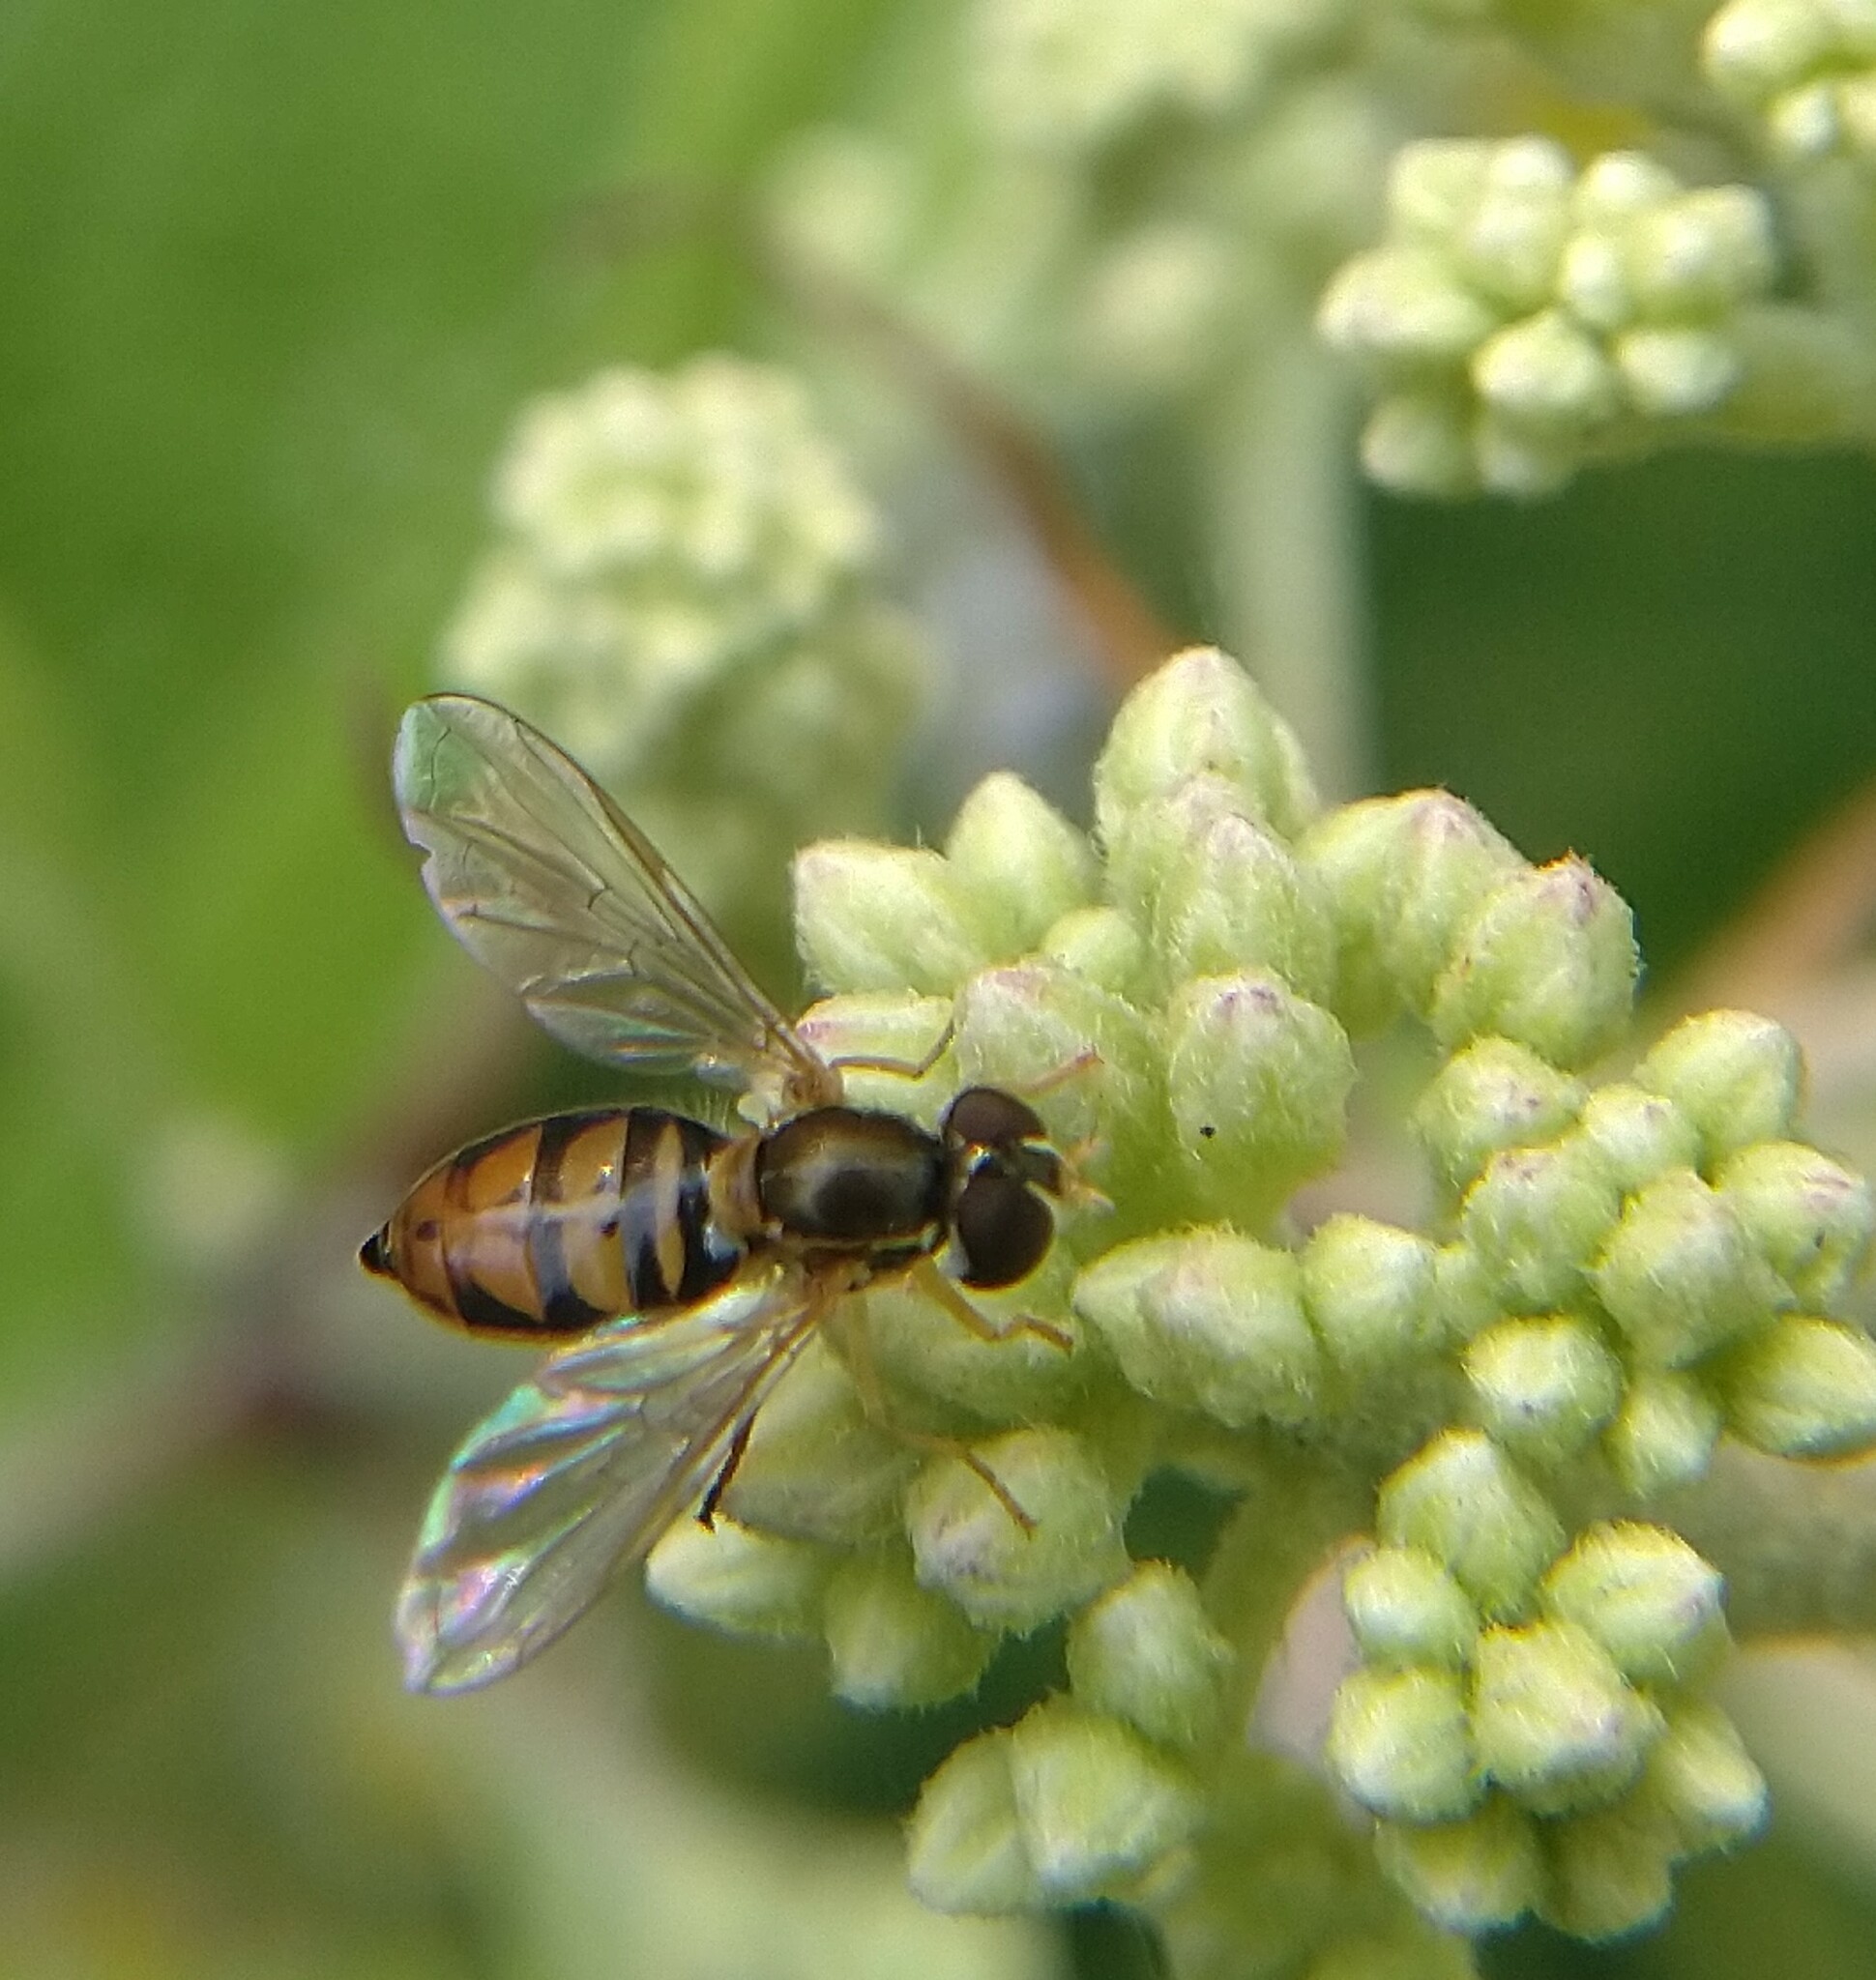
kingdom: Animalia
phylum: Arthropoda
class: Insecta
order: Diptera
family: Syrphidae
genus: Toxomerus
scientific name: Toxomerus marginatus
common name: Syrphid fly
